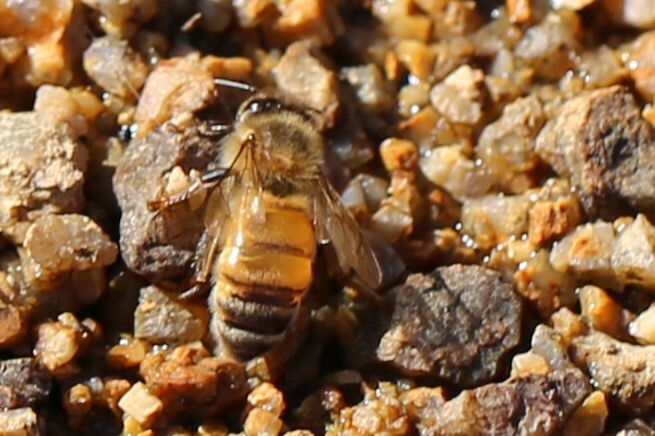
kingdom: Animalia
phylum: Arthropoda
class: Insecta
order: Hymenoptera
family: Apidae
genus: Apis
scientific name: Apis mellifera
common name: Honey bee
